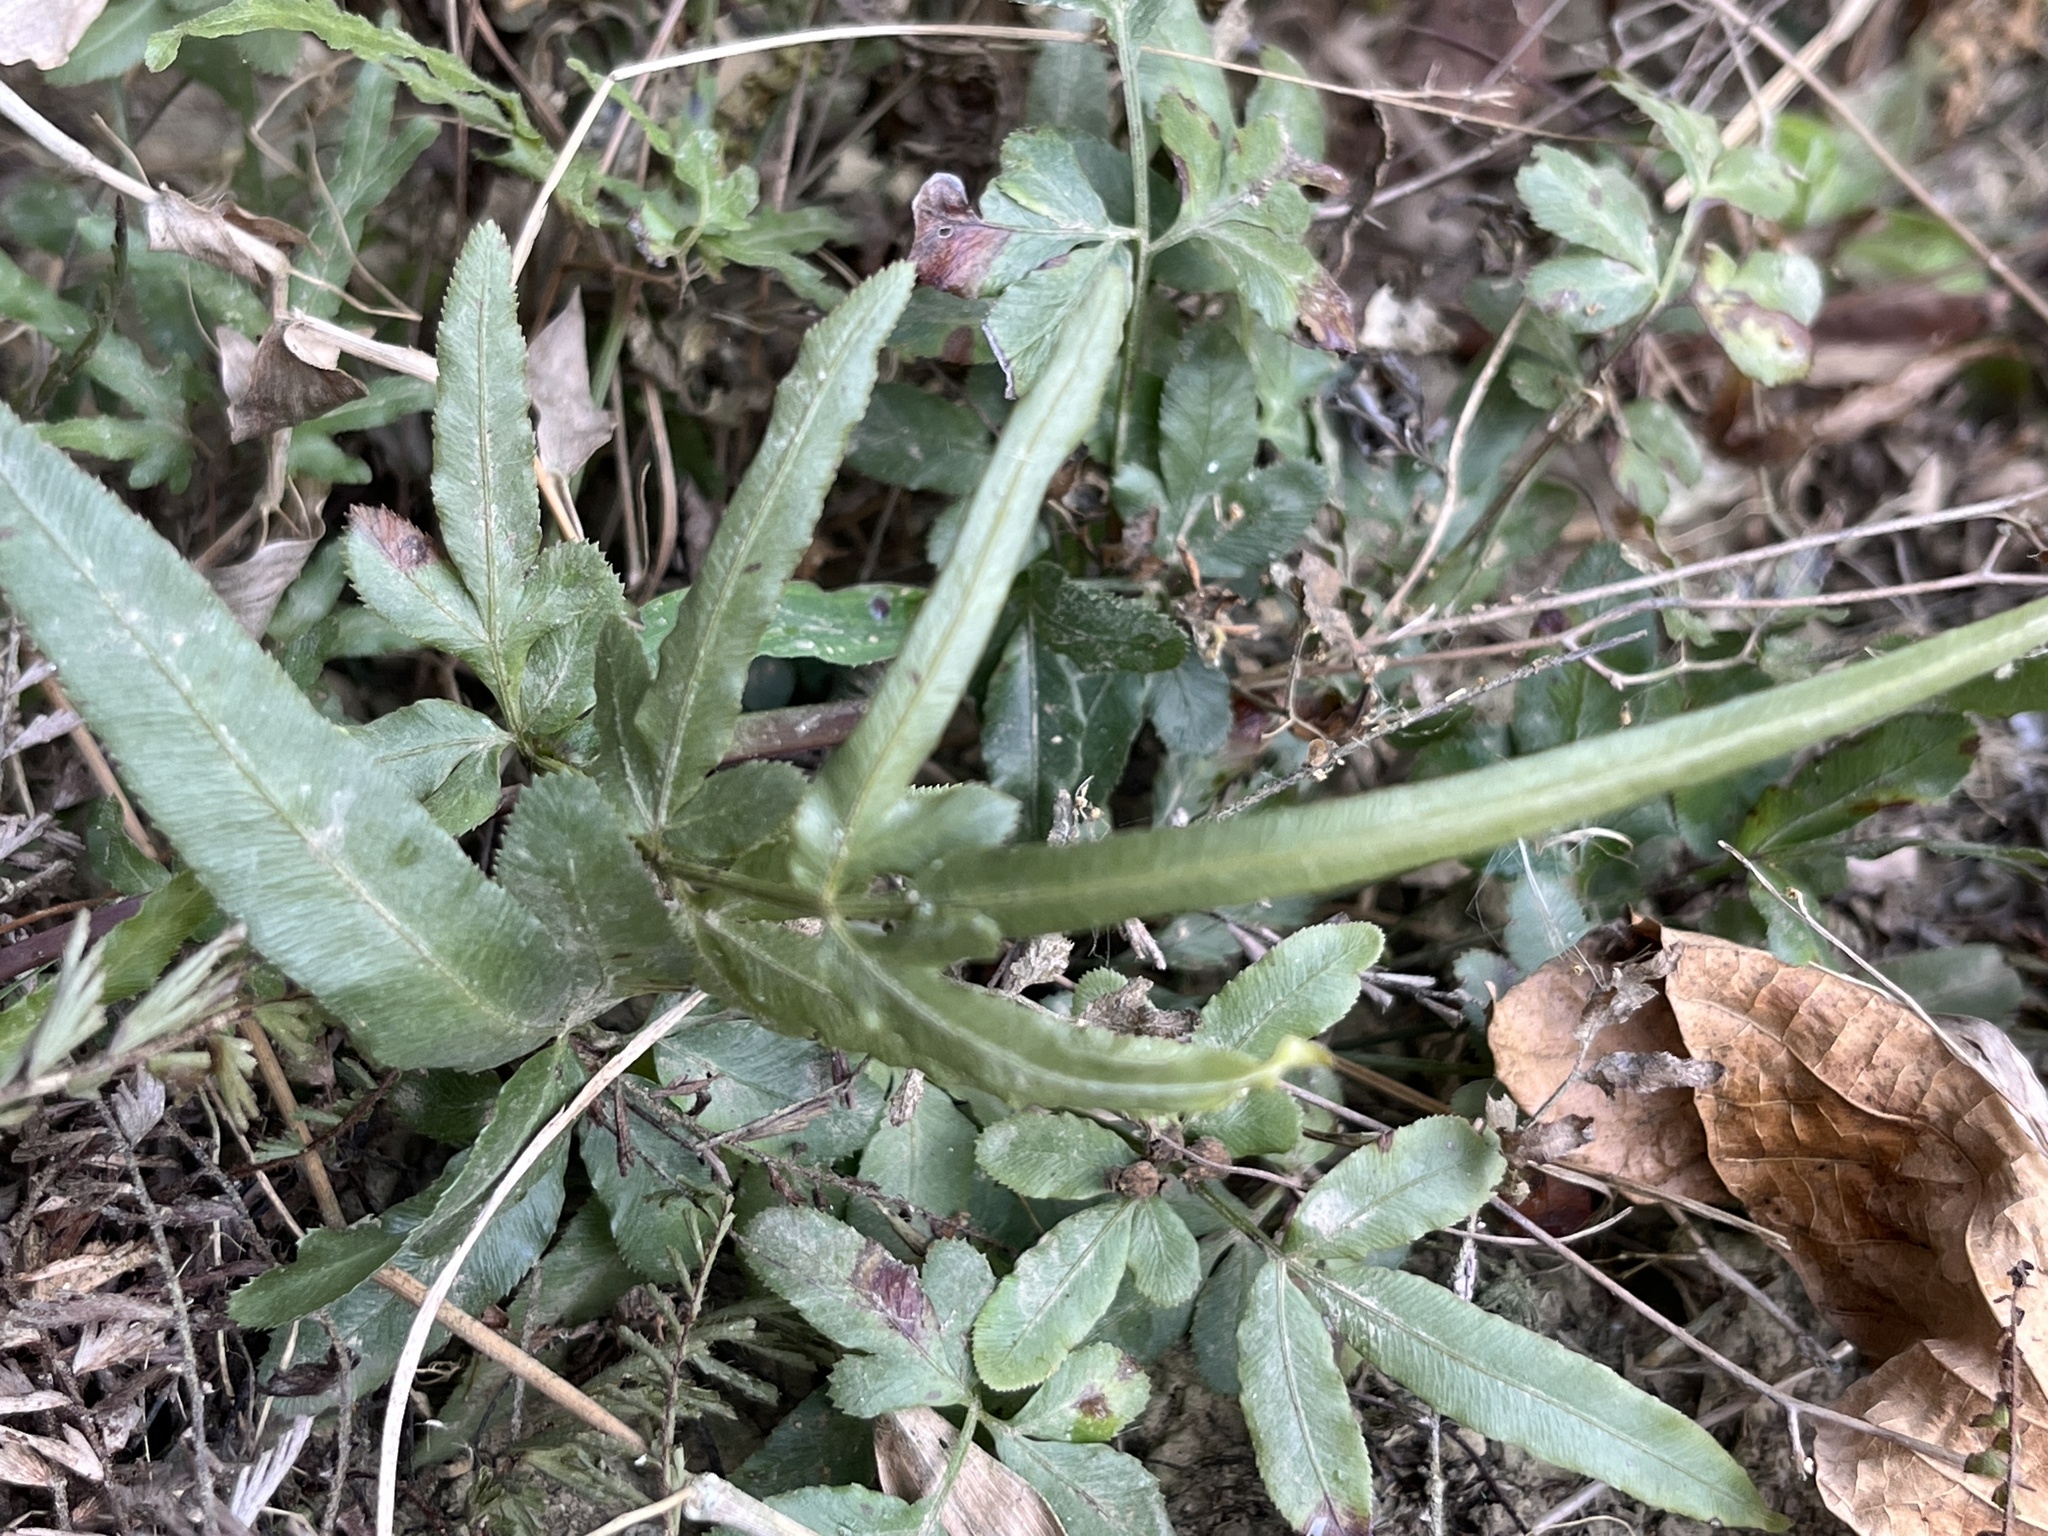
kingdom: Plantae
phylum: Tracheophyta
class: Polypodiopsida
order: Polypodiales
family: Pteridaceae
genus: Pteris
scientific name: Pteris ensiformis
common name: Sword brake
